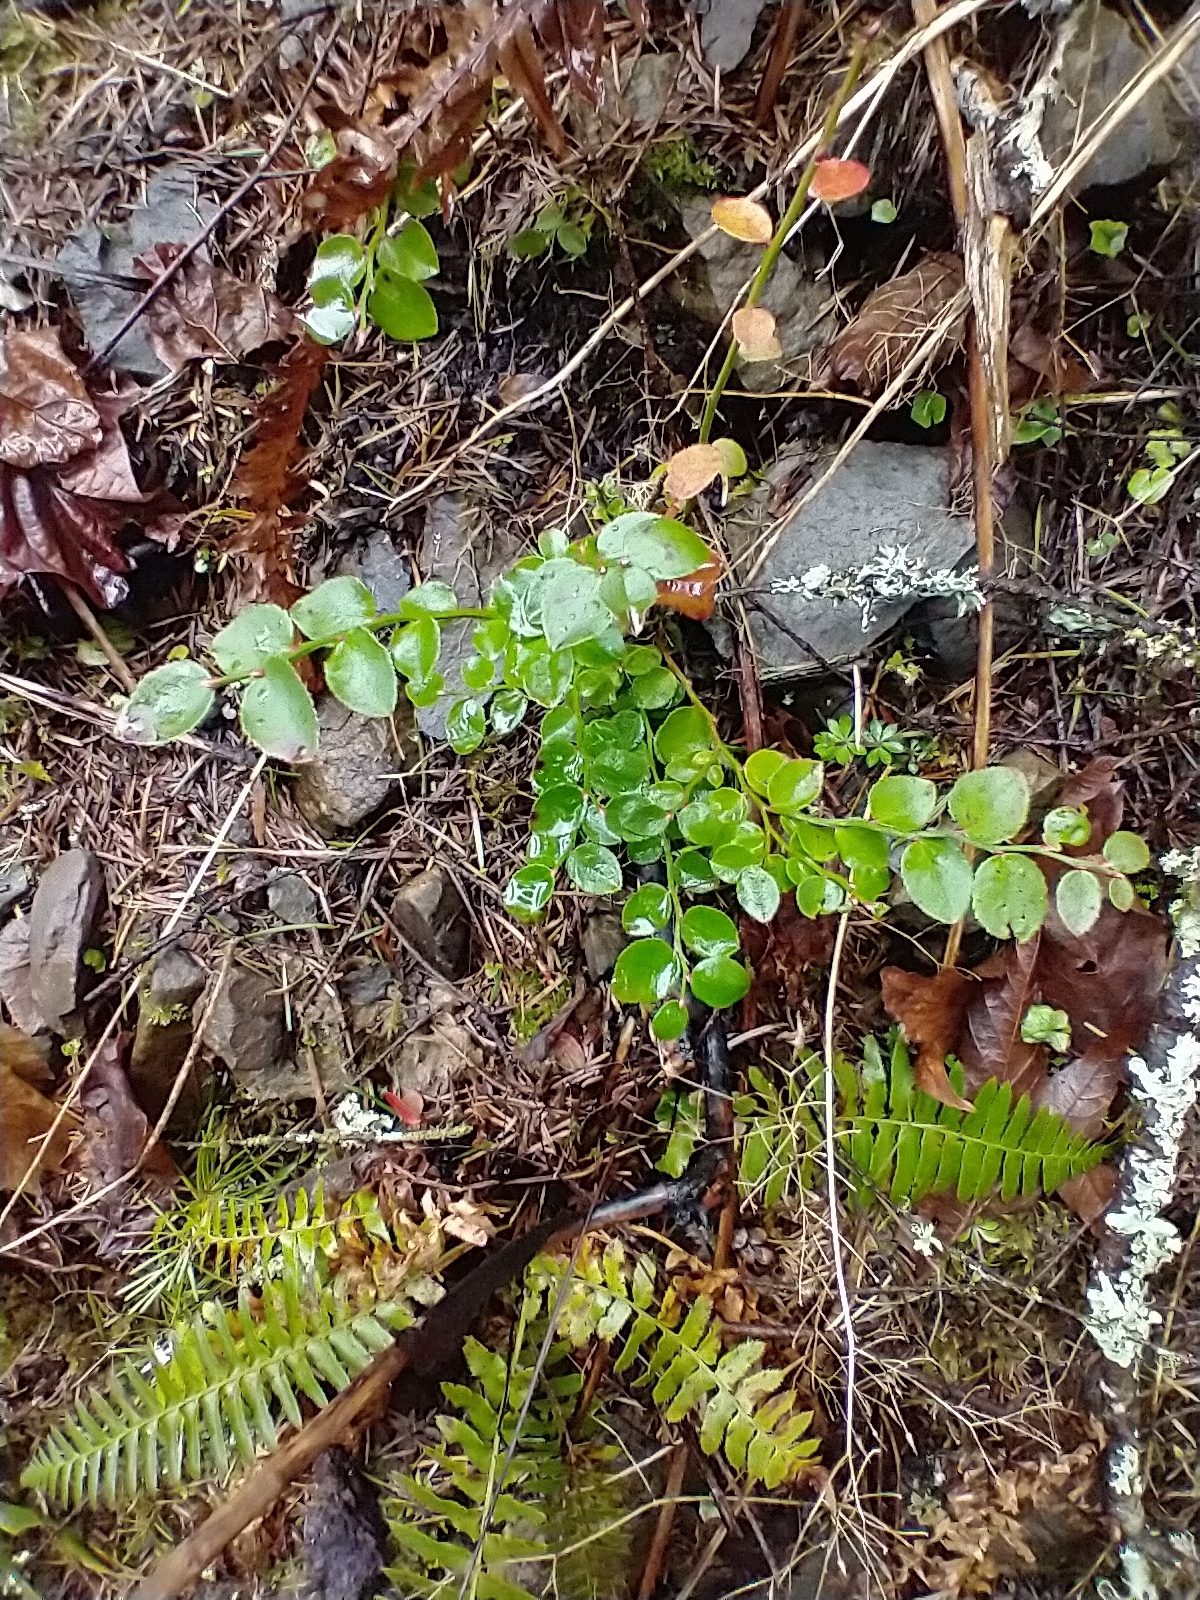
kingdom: Plantae
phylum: Tracheophyta
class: Magnoliopsida
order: Ericales
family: Ericaceae
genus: Vaccinium
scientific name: Vaccinium parvifolium
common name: Red-huckleberry
